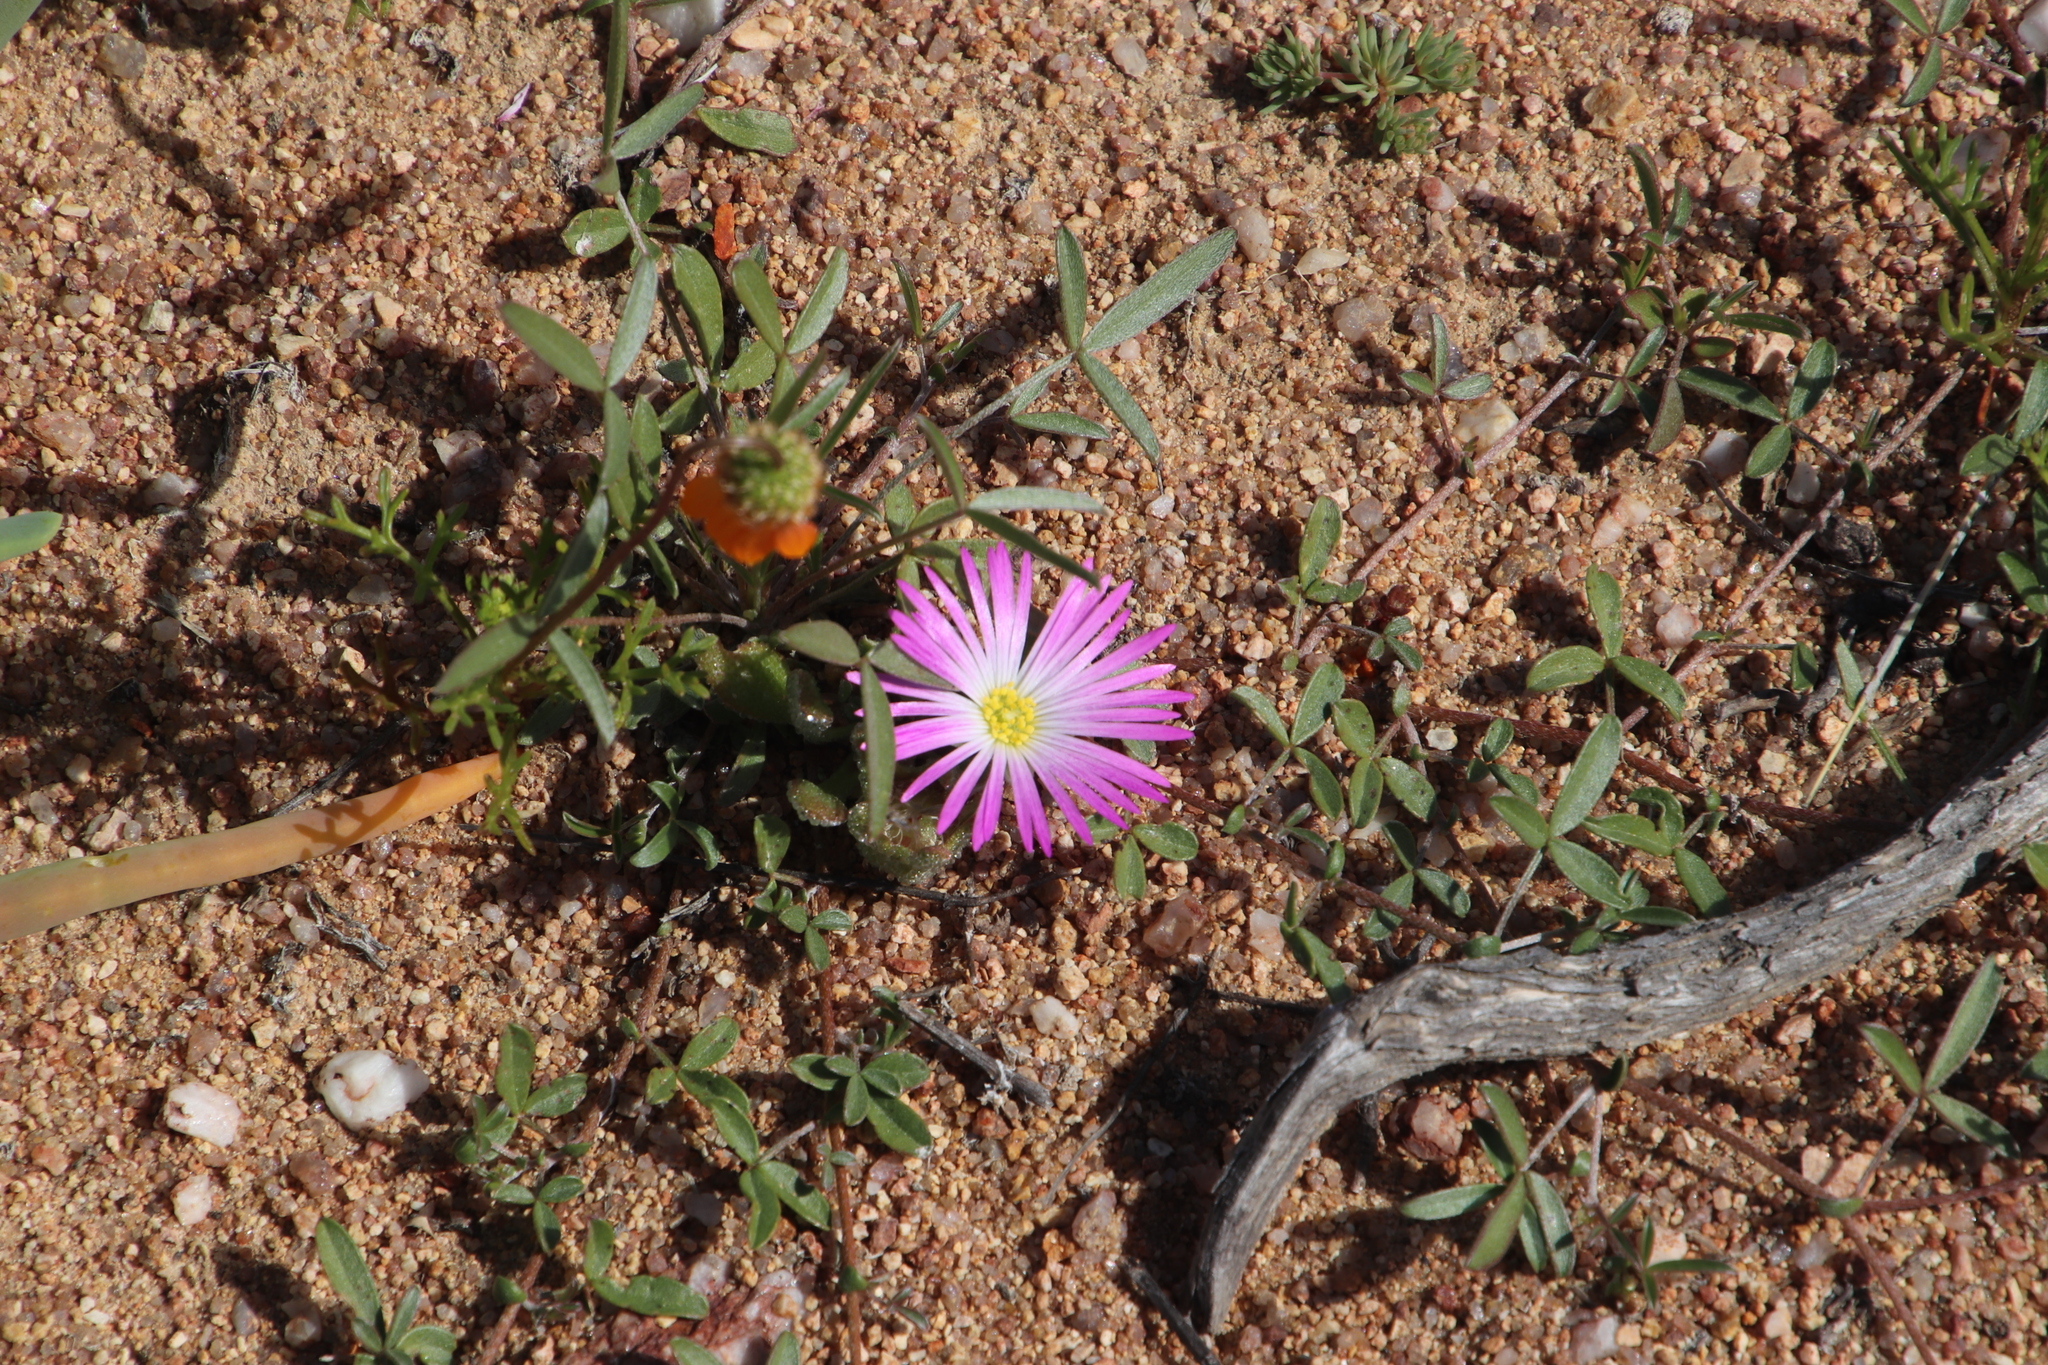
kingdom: Plantae
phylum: Tracheophyta
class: Magnoliopsida
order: Caryophyllales
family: Aizoaceae
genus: Cleretum
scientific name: Cleretum hestermalense
